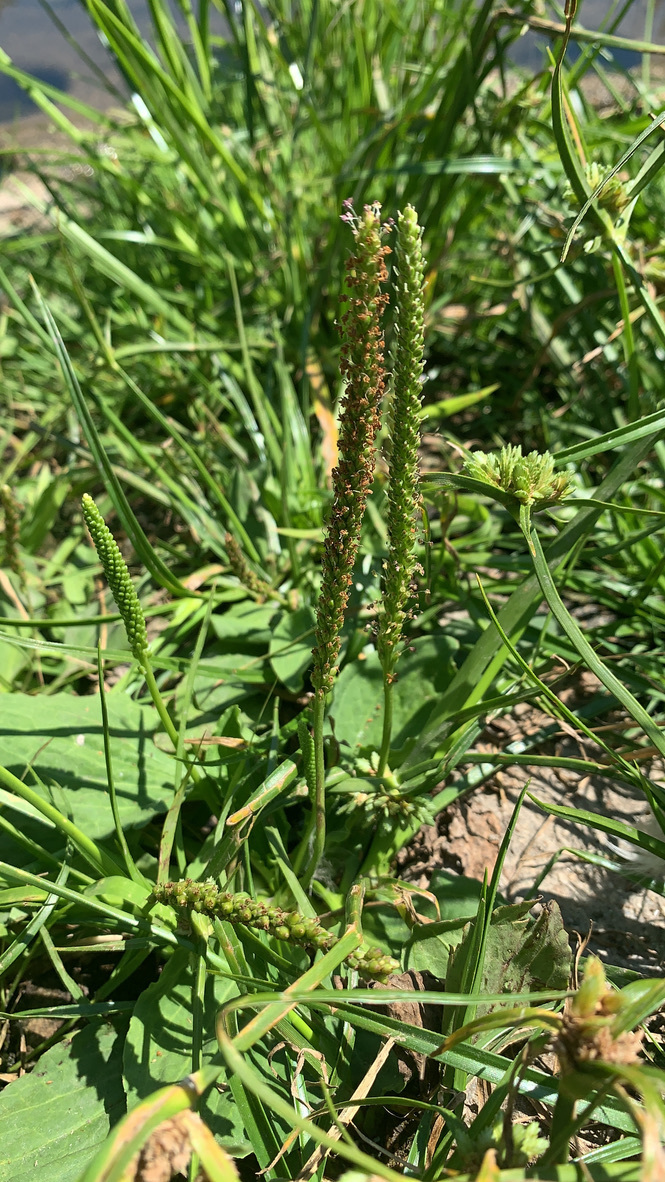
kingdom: Plantae
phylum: Tracheophyta
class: Magnoliopsida
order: Lamiales
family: Plantaginaceae
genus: Plantago
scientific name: Plantago major
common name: Common plantain
